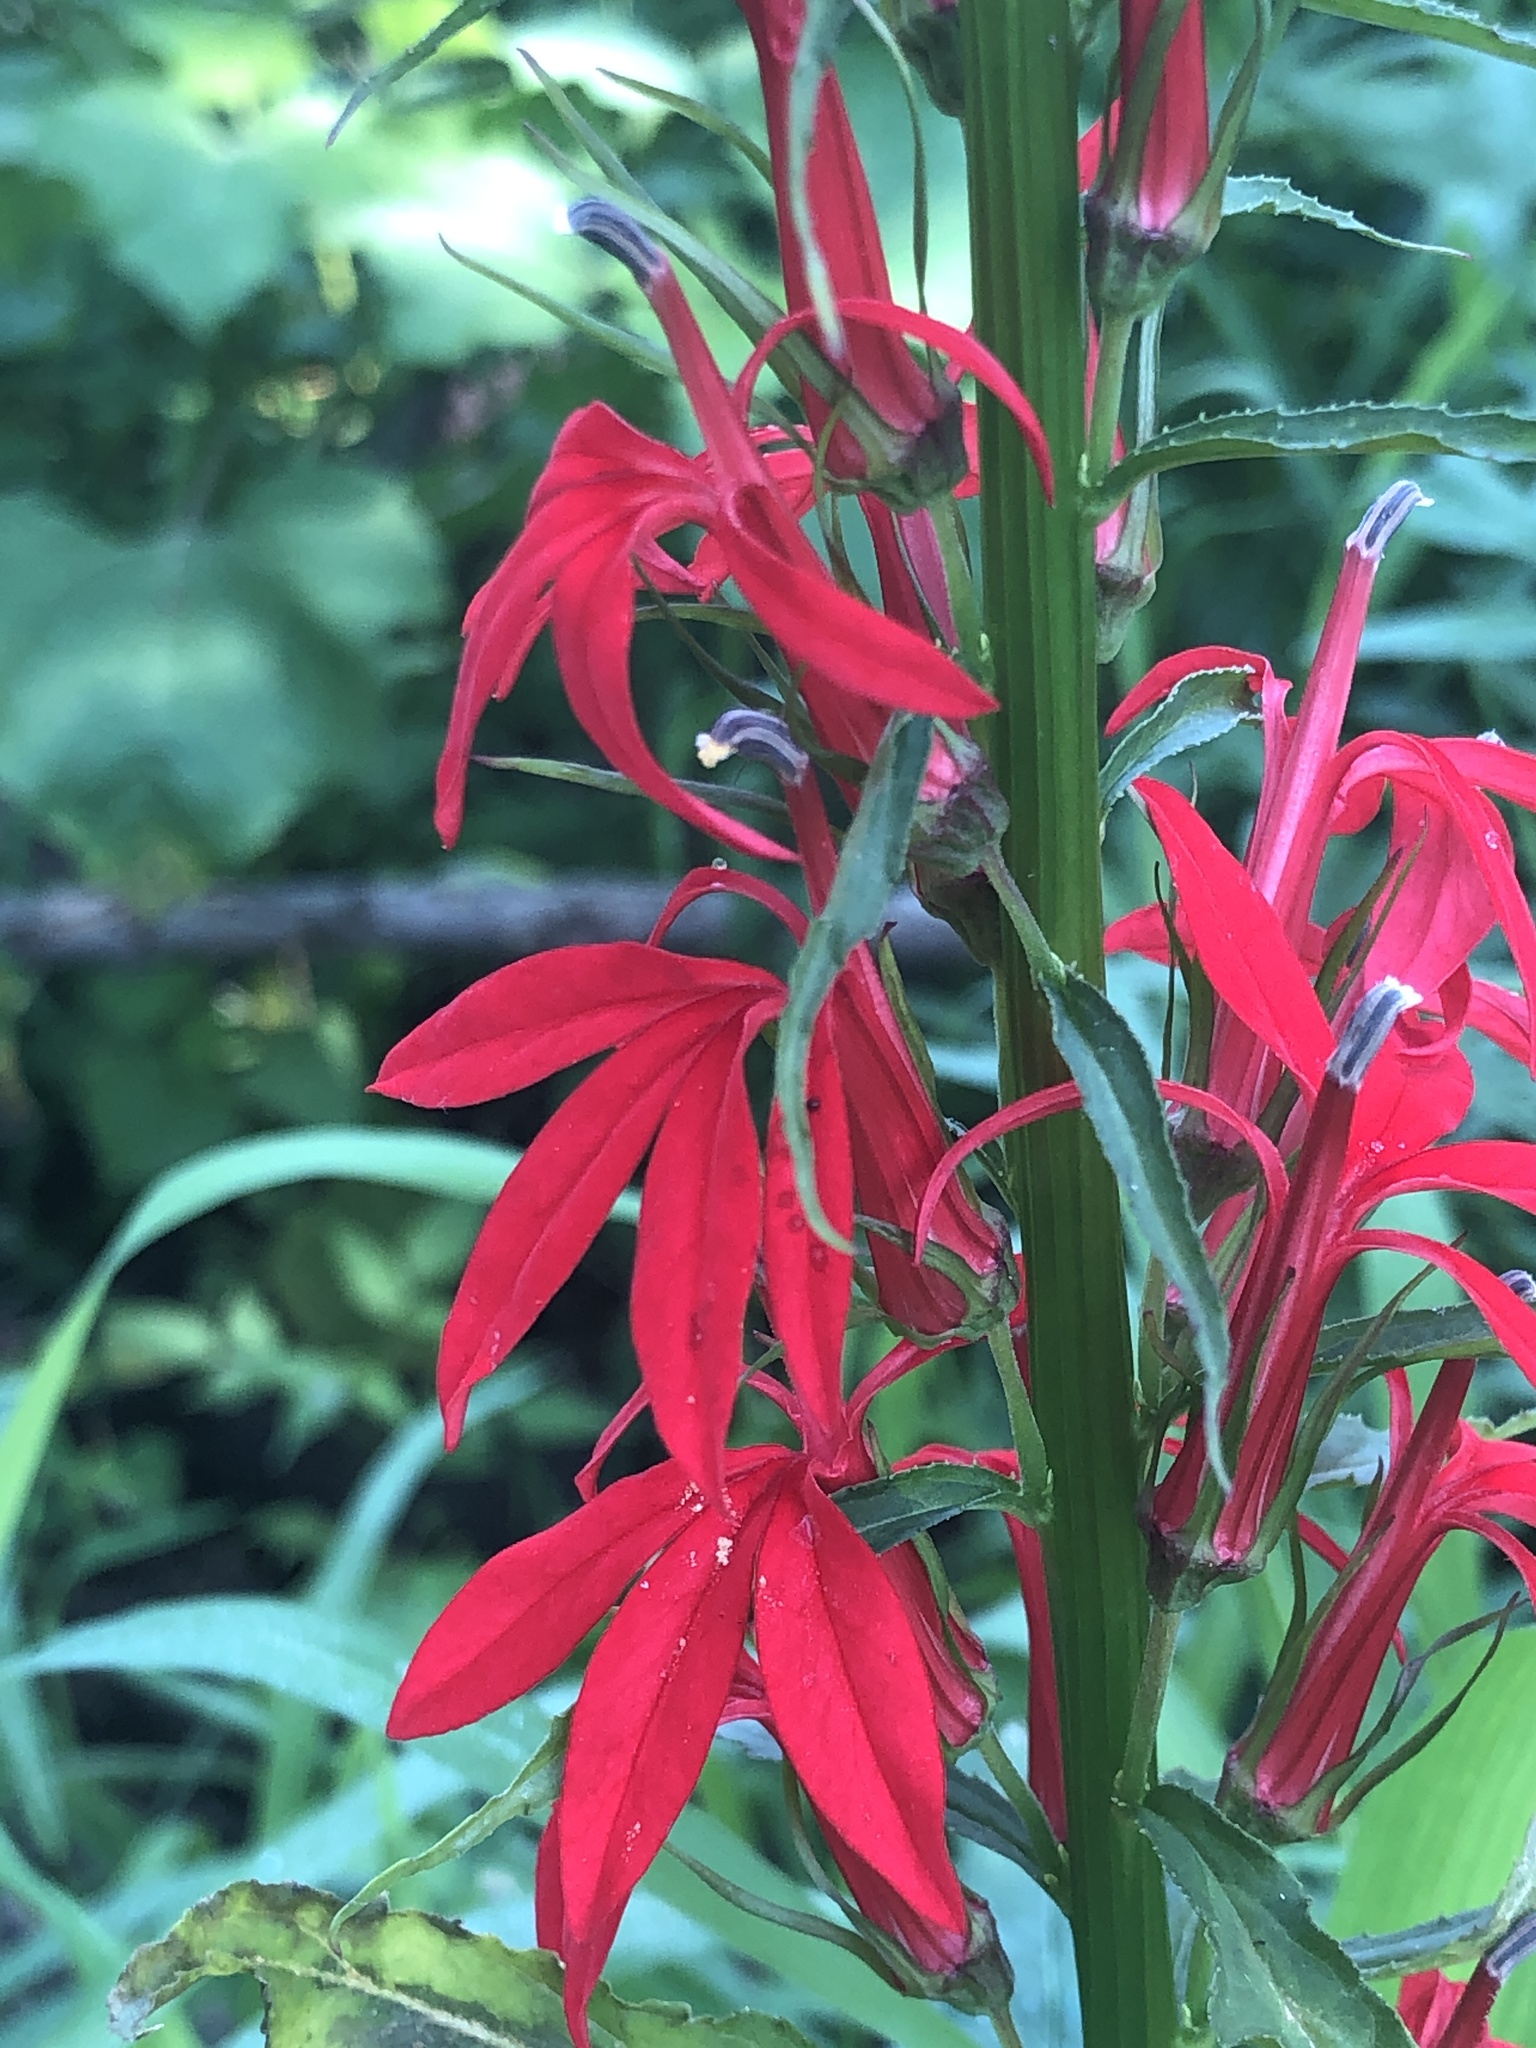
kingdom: Plantae
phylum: Tracheophyta
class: Magnoliopsida
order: Asterales
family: Campanulaceae
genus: Lobelia
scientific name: Lobelia cardinalis
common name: Cardinal flower
